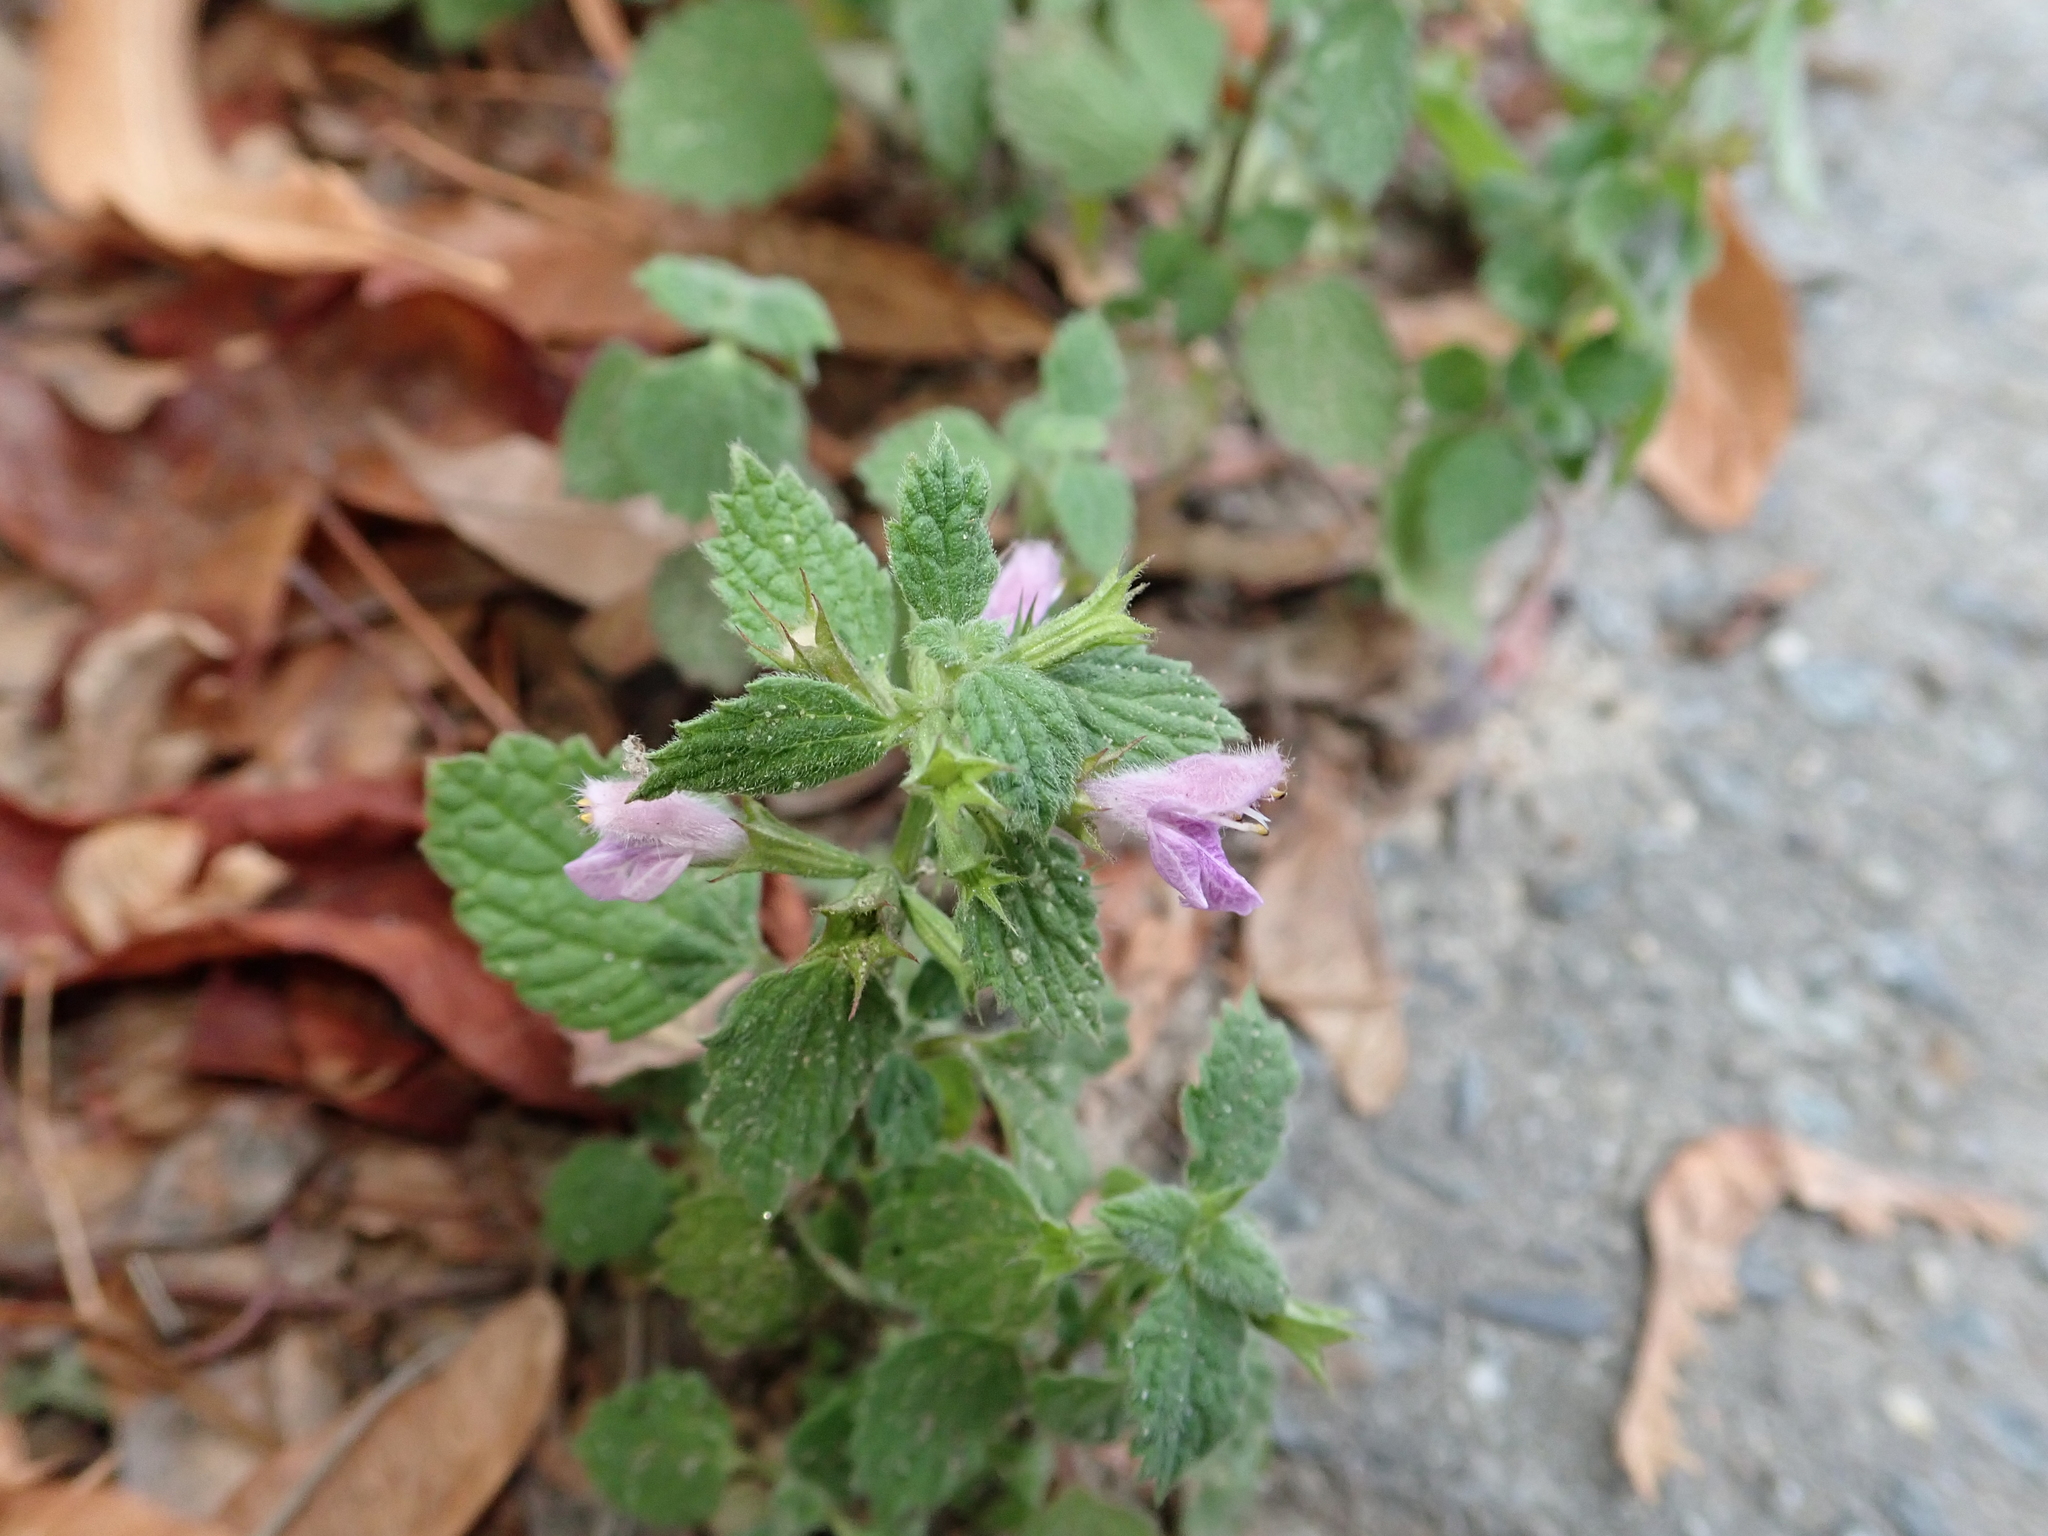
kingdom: Plantae
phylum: Tracheophyta
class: Magnoliopsida
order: Lamiales
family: Lamiaceae
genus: Ballota
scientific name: Ballota nigra
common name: Black horehound
